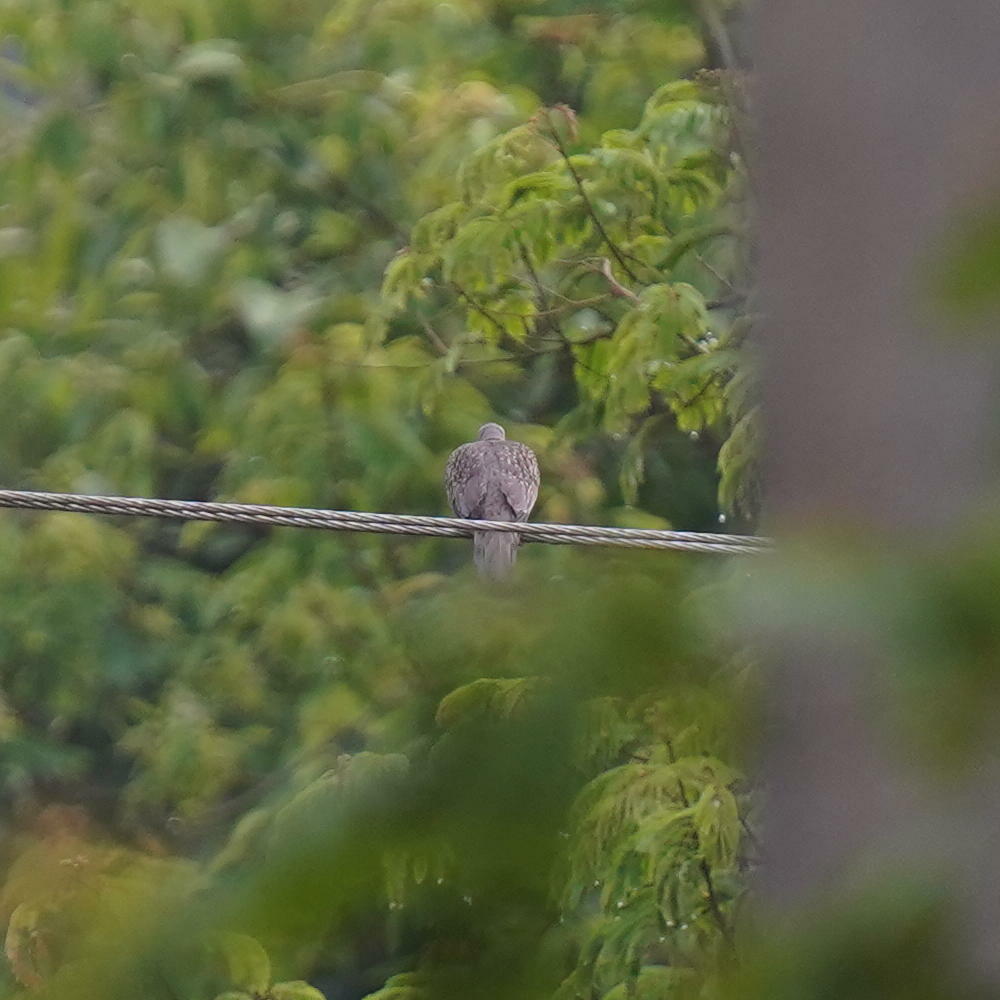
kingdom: Animalia
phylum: Chordata
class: Aves
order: Columbiformes
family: Columbidae
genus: Spilopelia
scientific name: Spilopelia chinensis
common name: Spotted dove
